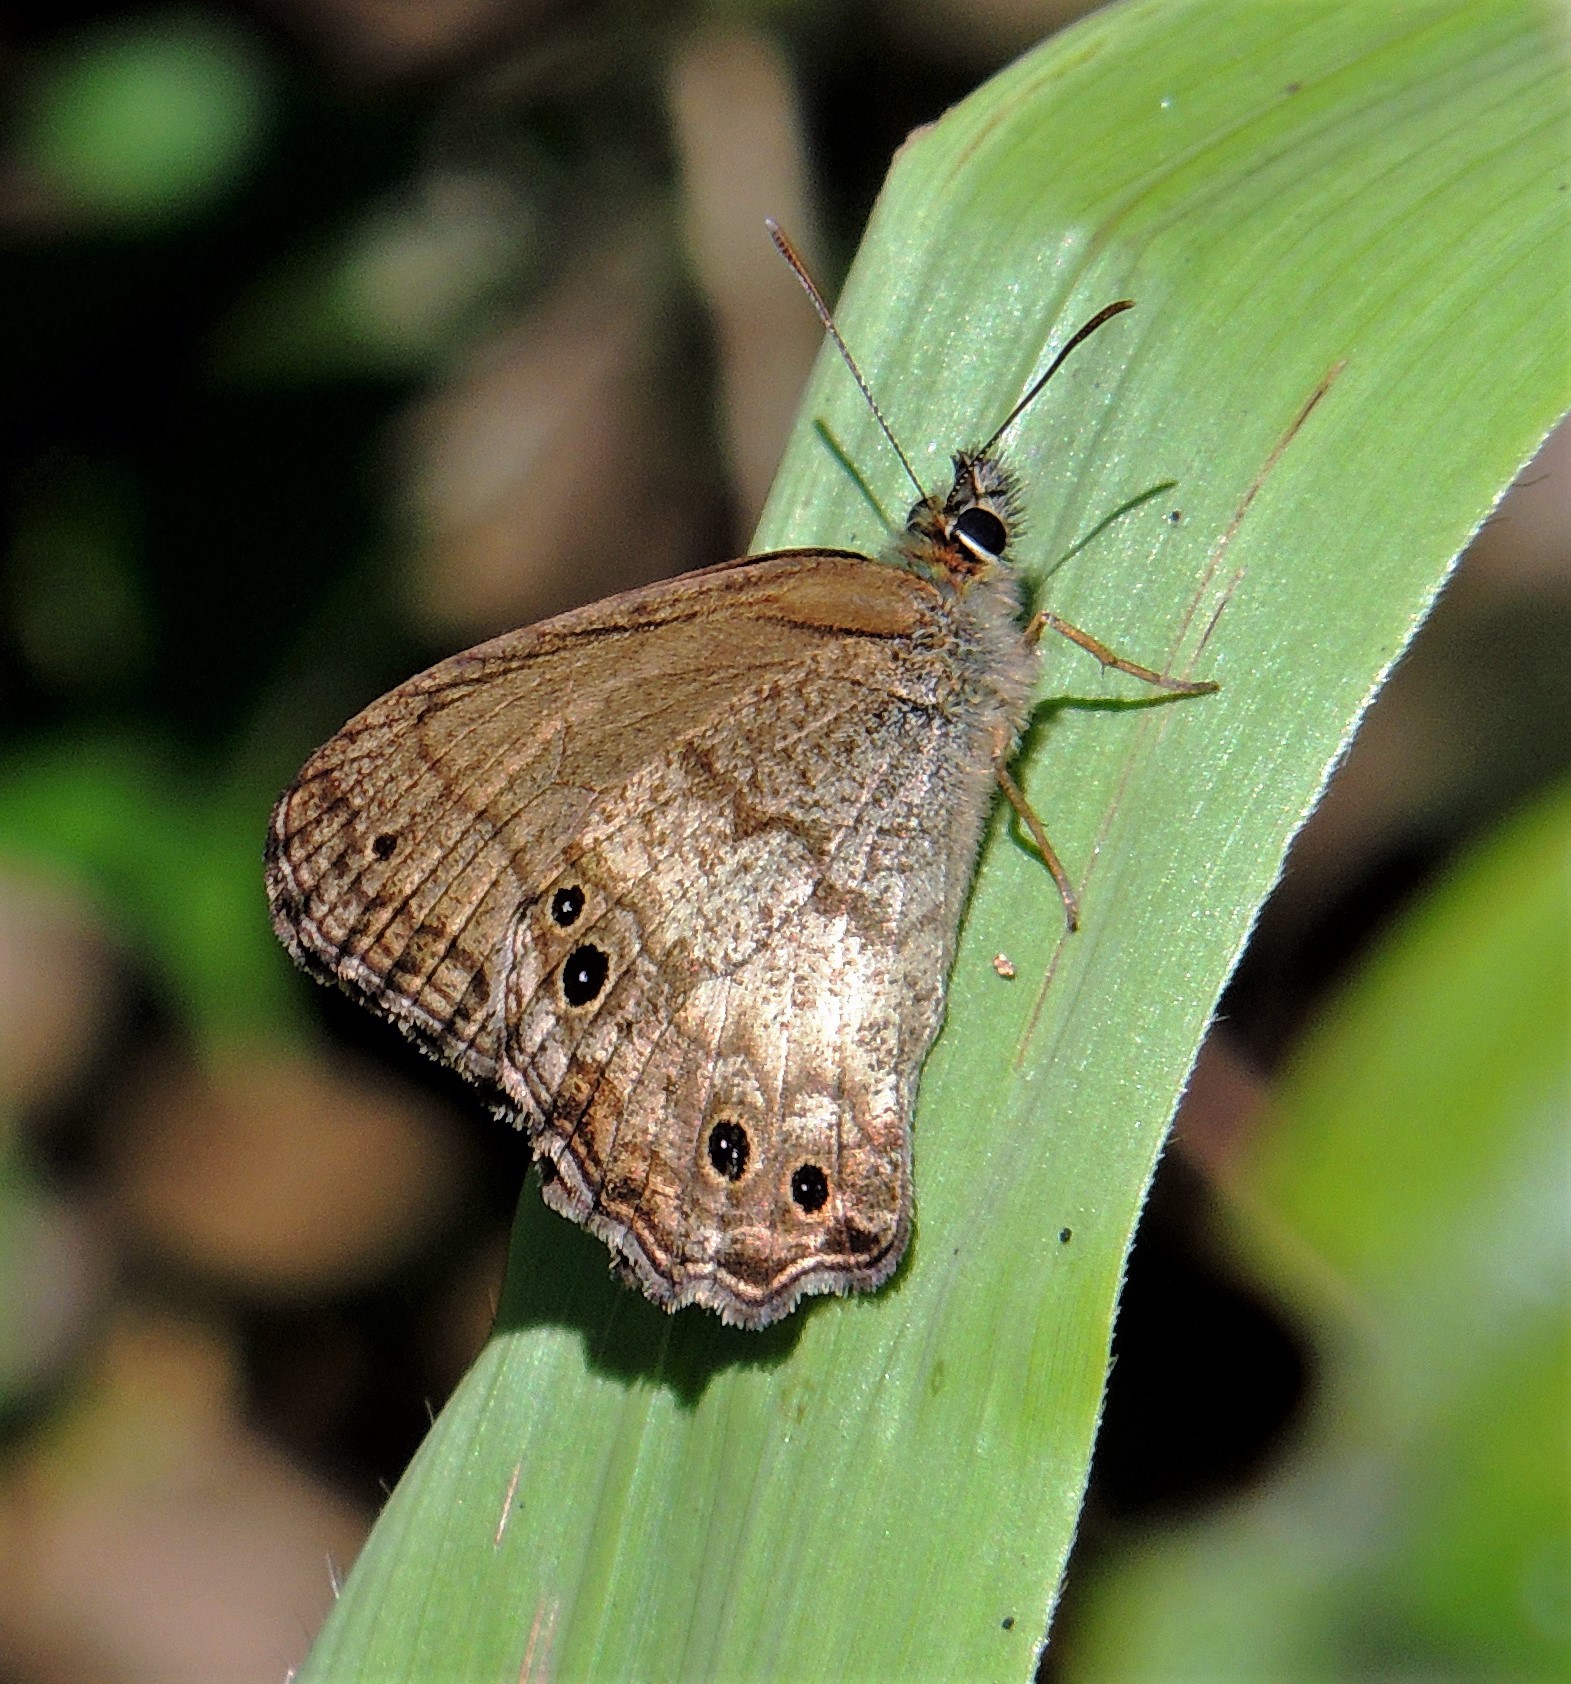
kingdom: Animalia
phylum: Arthropoda
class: Insecta
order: Lepidoptera
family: Nymphalidae
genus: Carminda
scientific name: Carminda griseldis
